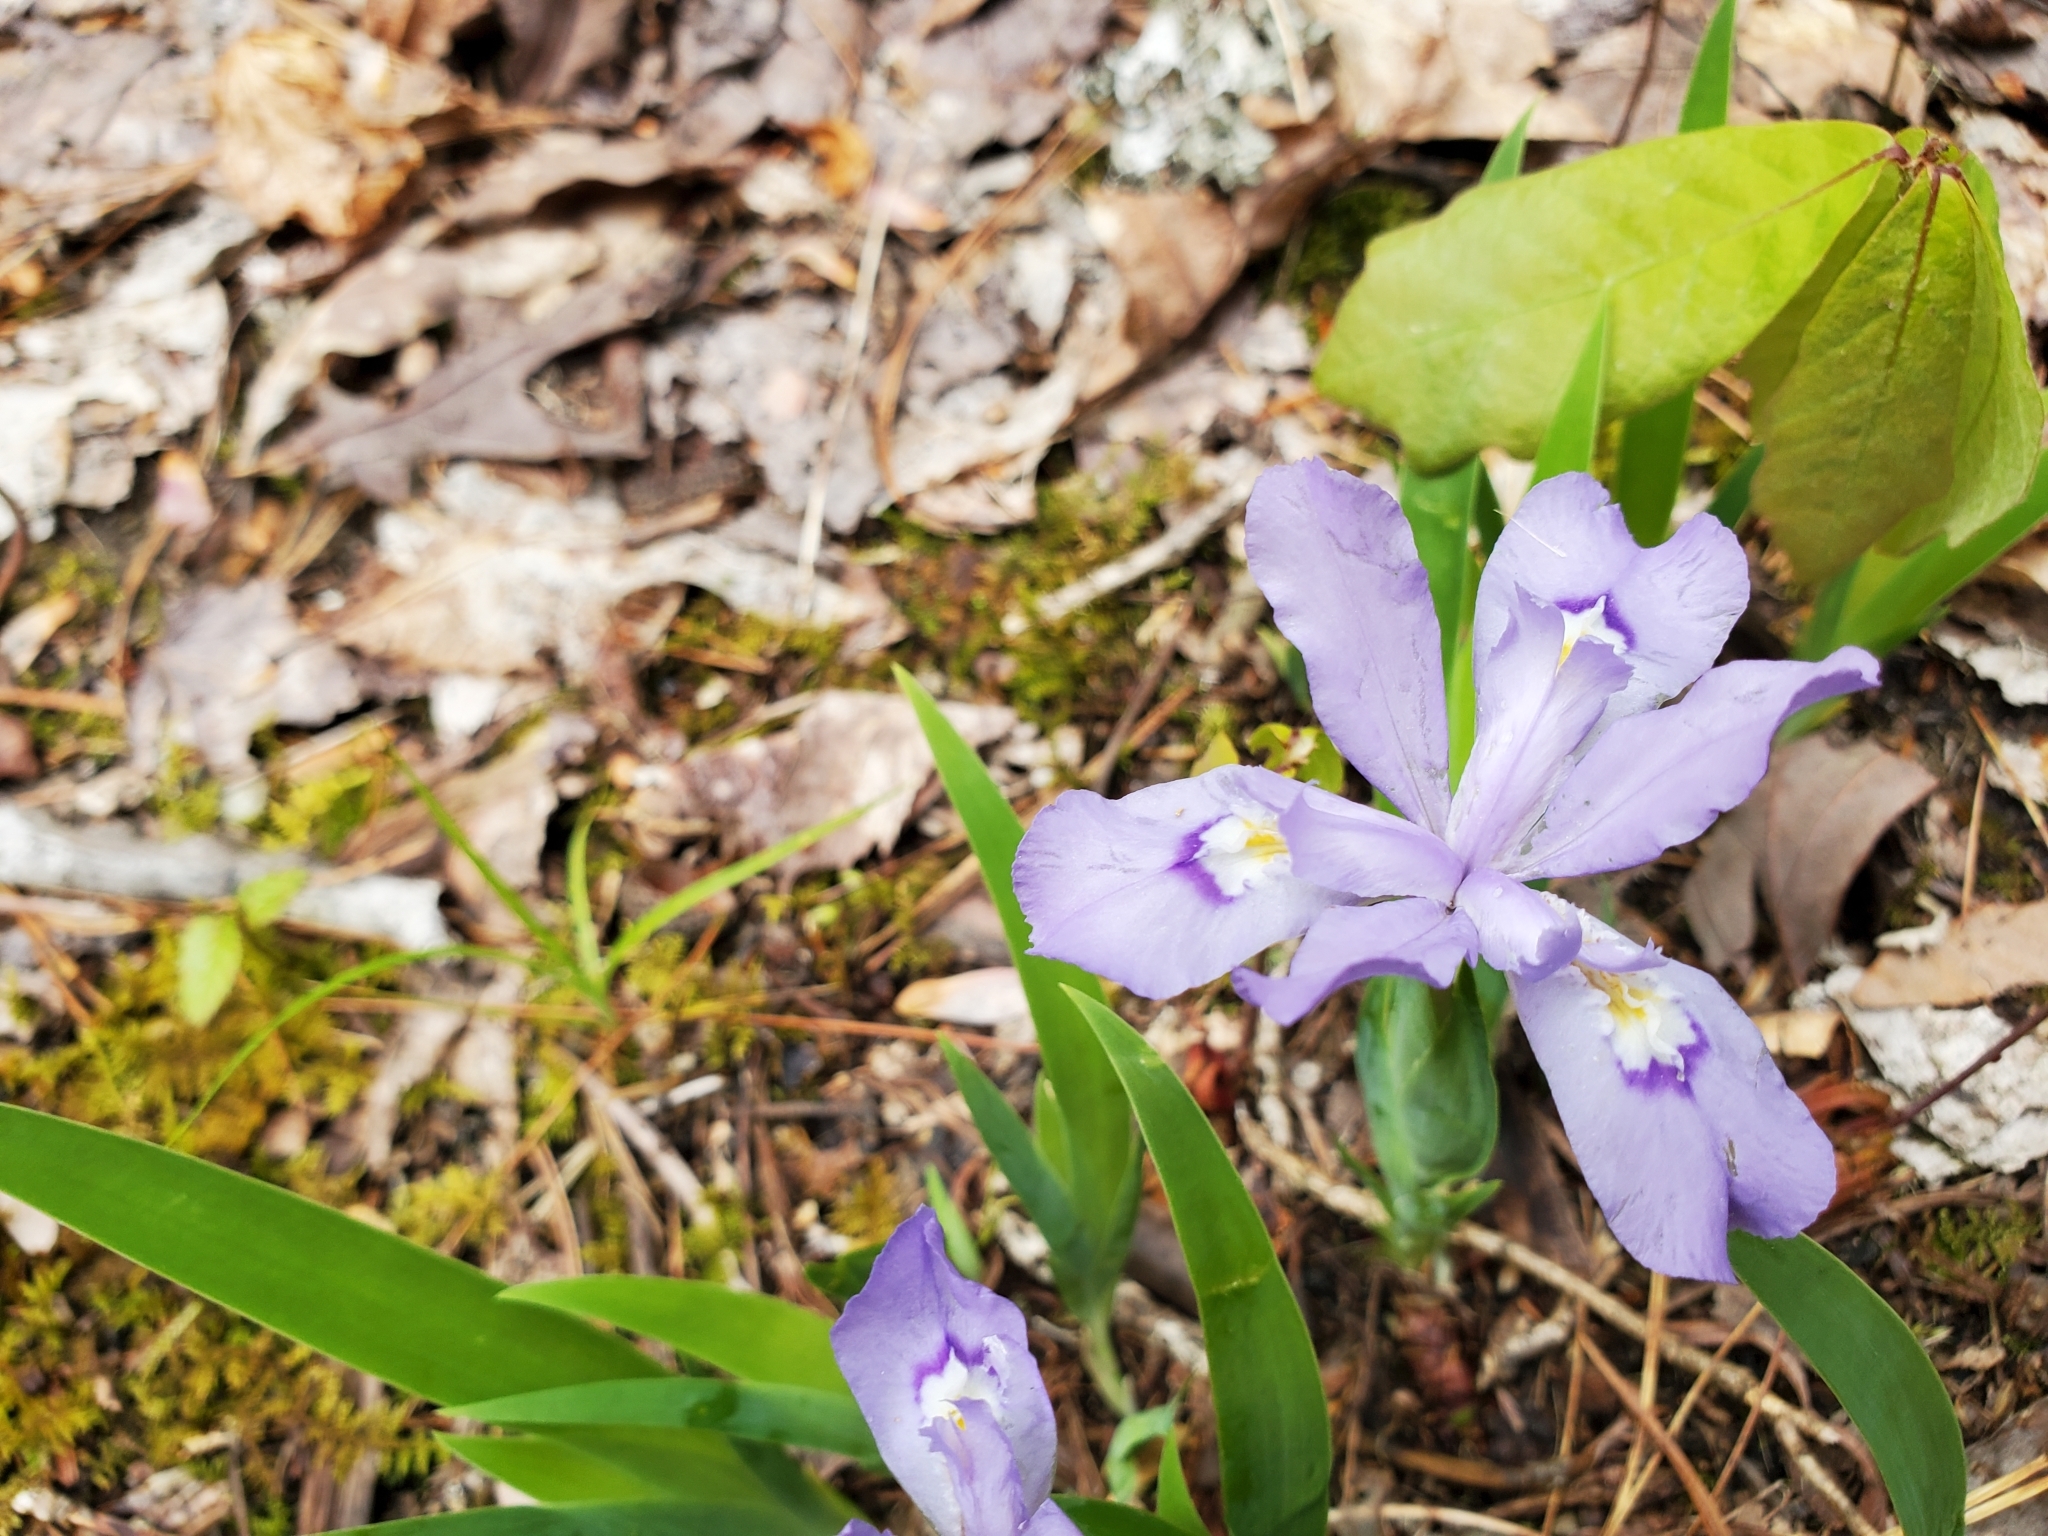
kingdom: Plantae
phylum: Tracheophyta
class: Liliopsida
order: Asparagales
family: Iridaceae
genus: Iris
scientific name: Iris cristata
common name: Crested iris
